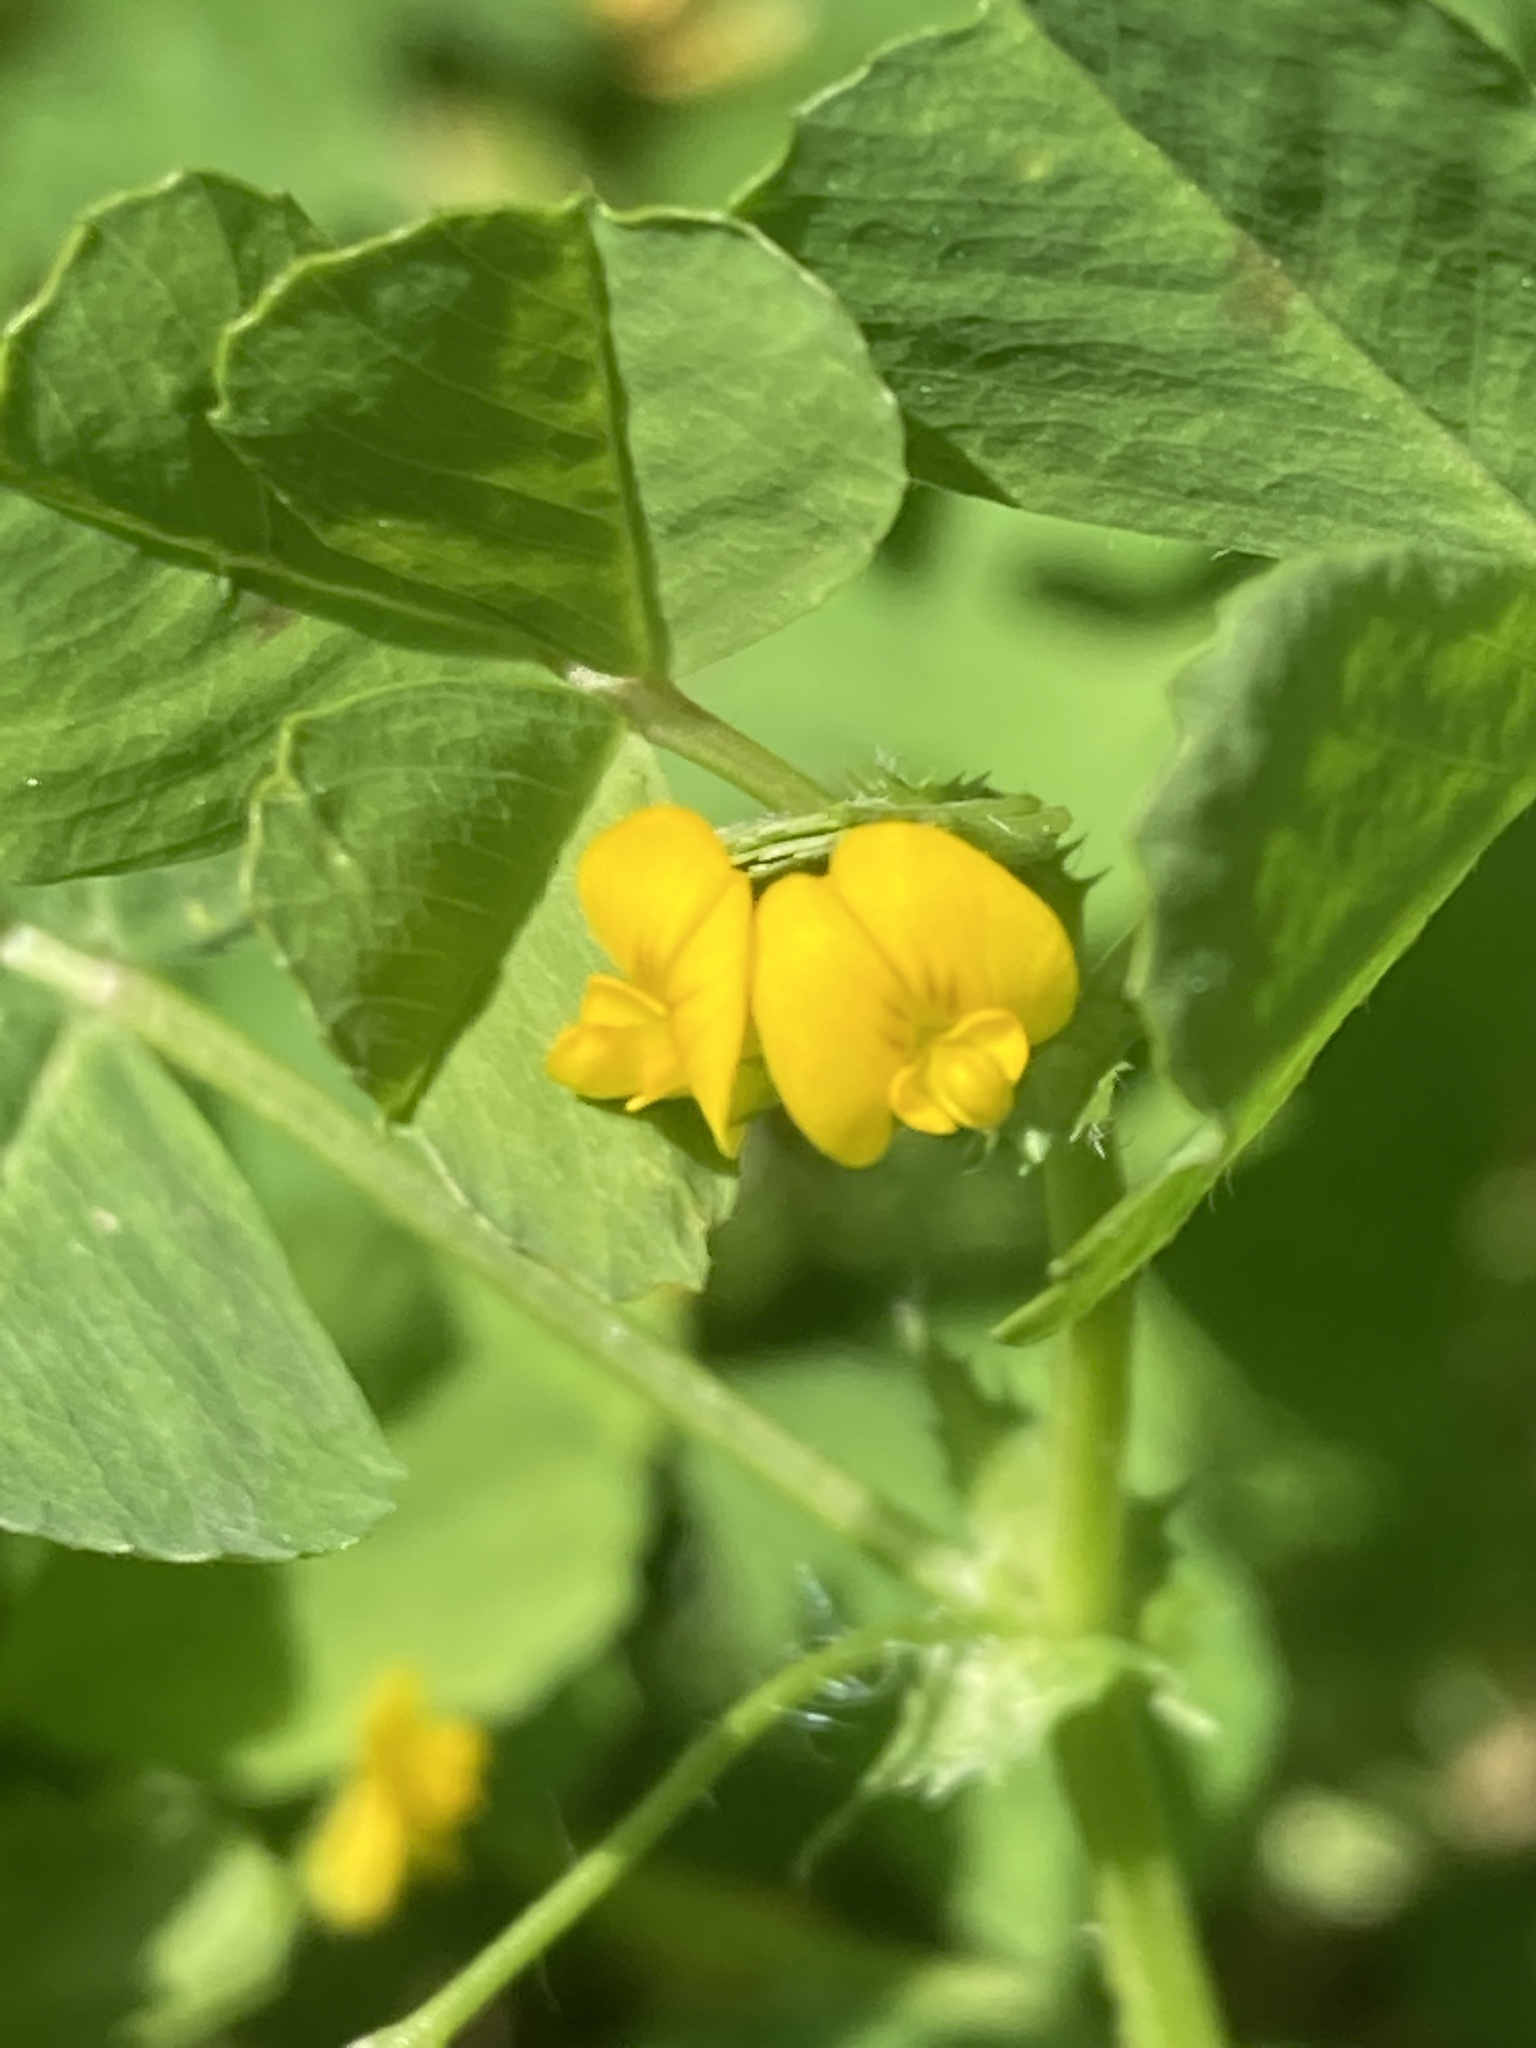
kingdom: Plantae
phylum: Tracheophyta
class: Magnoliopsida
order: Fabales
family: Fabaceae
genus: Medicago
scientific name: Medicago arabica
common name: Spotted medick
